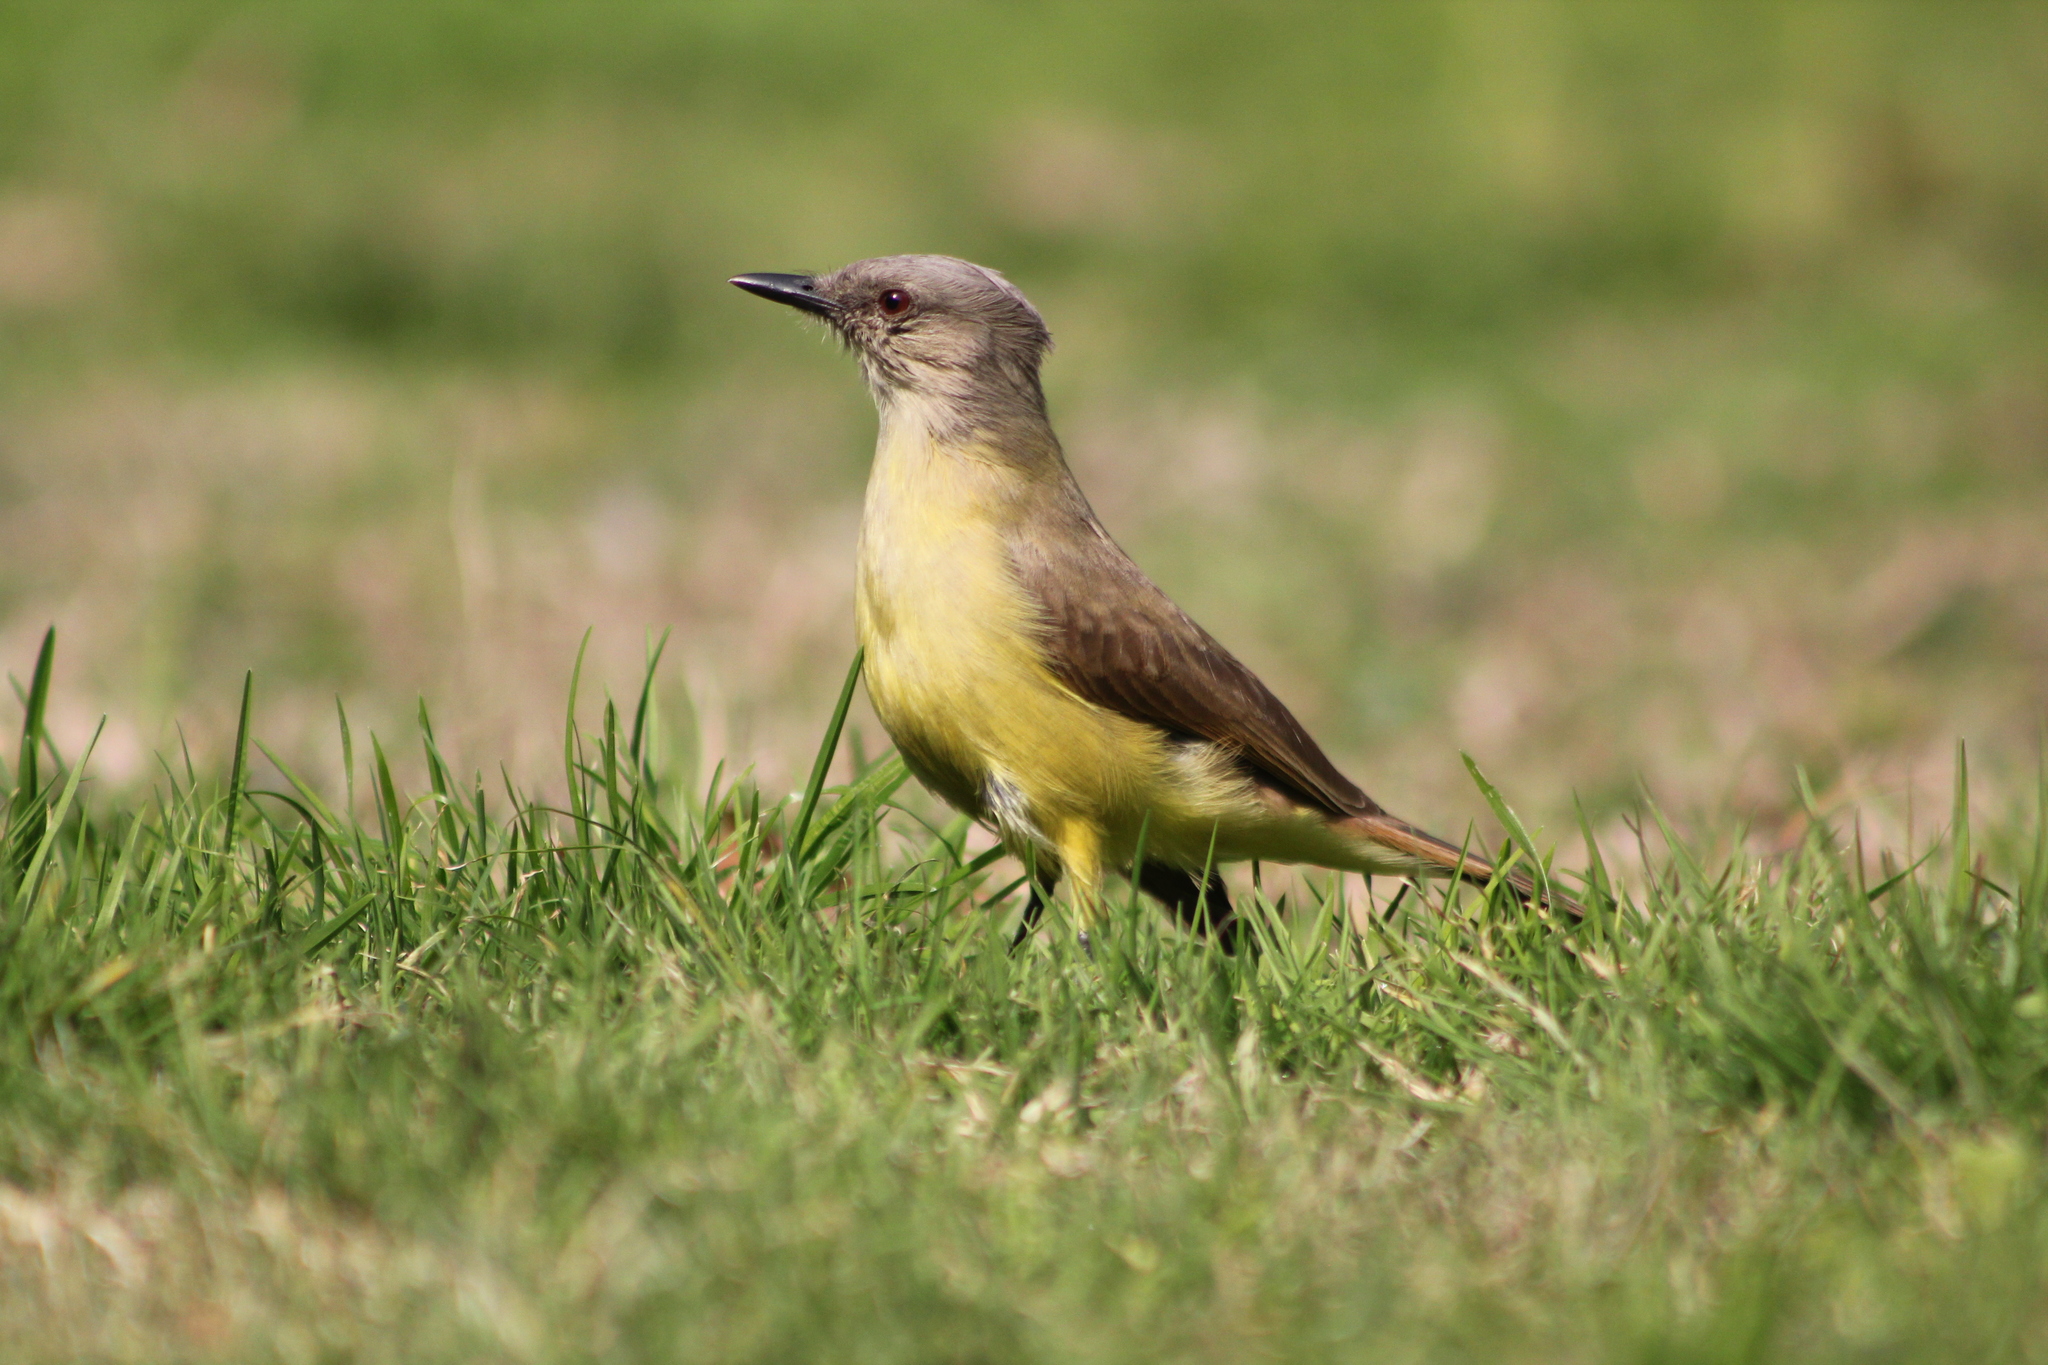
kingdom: Animalia
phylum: Chordata
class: Aves
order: Passeriformes
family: Tyrannidae
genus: Machetornis
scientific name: Machetornis rixosa
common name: Cattle tyrant
